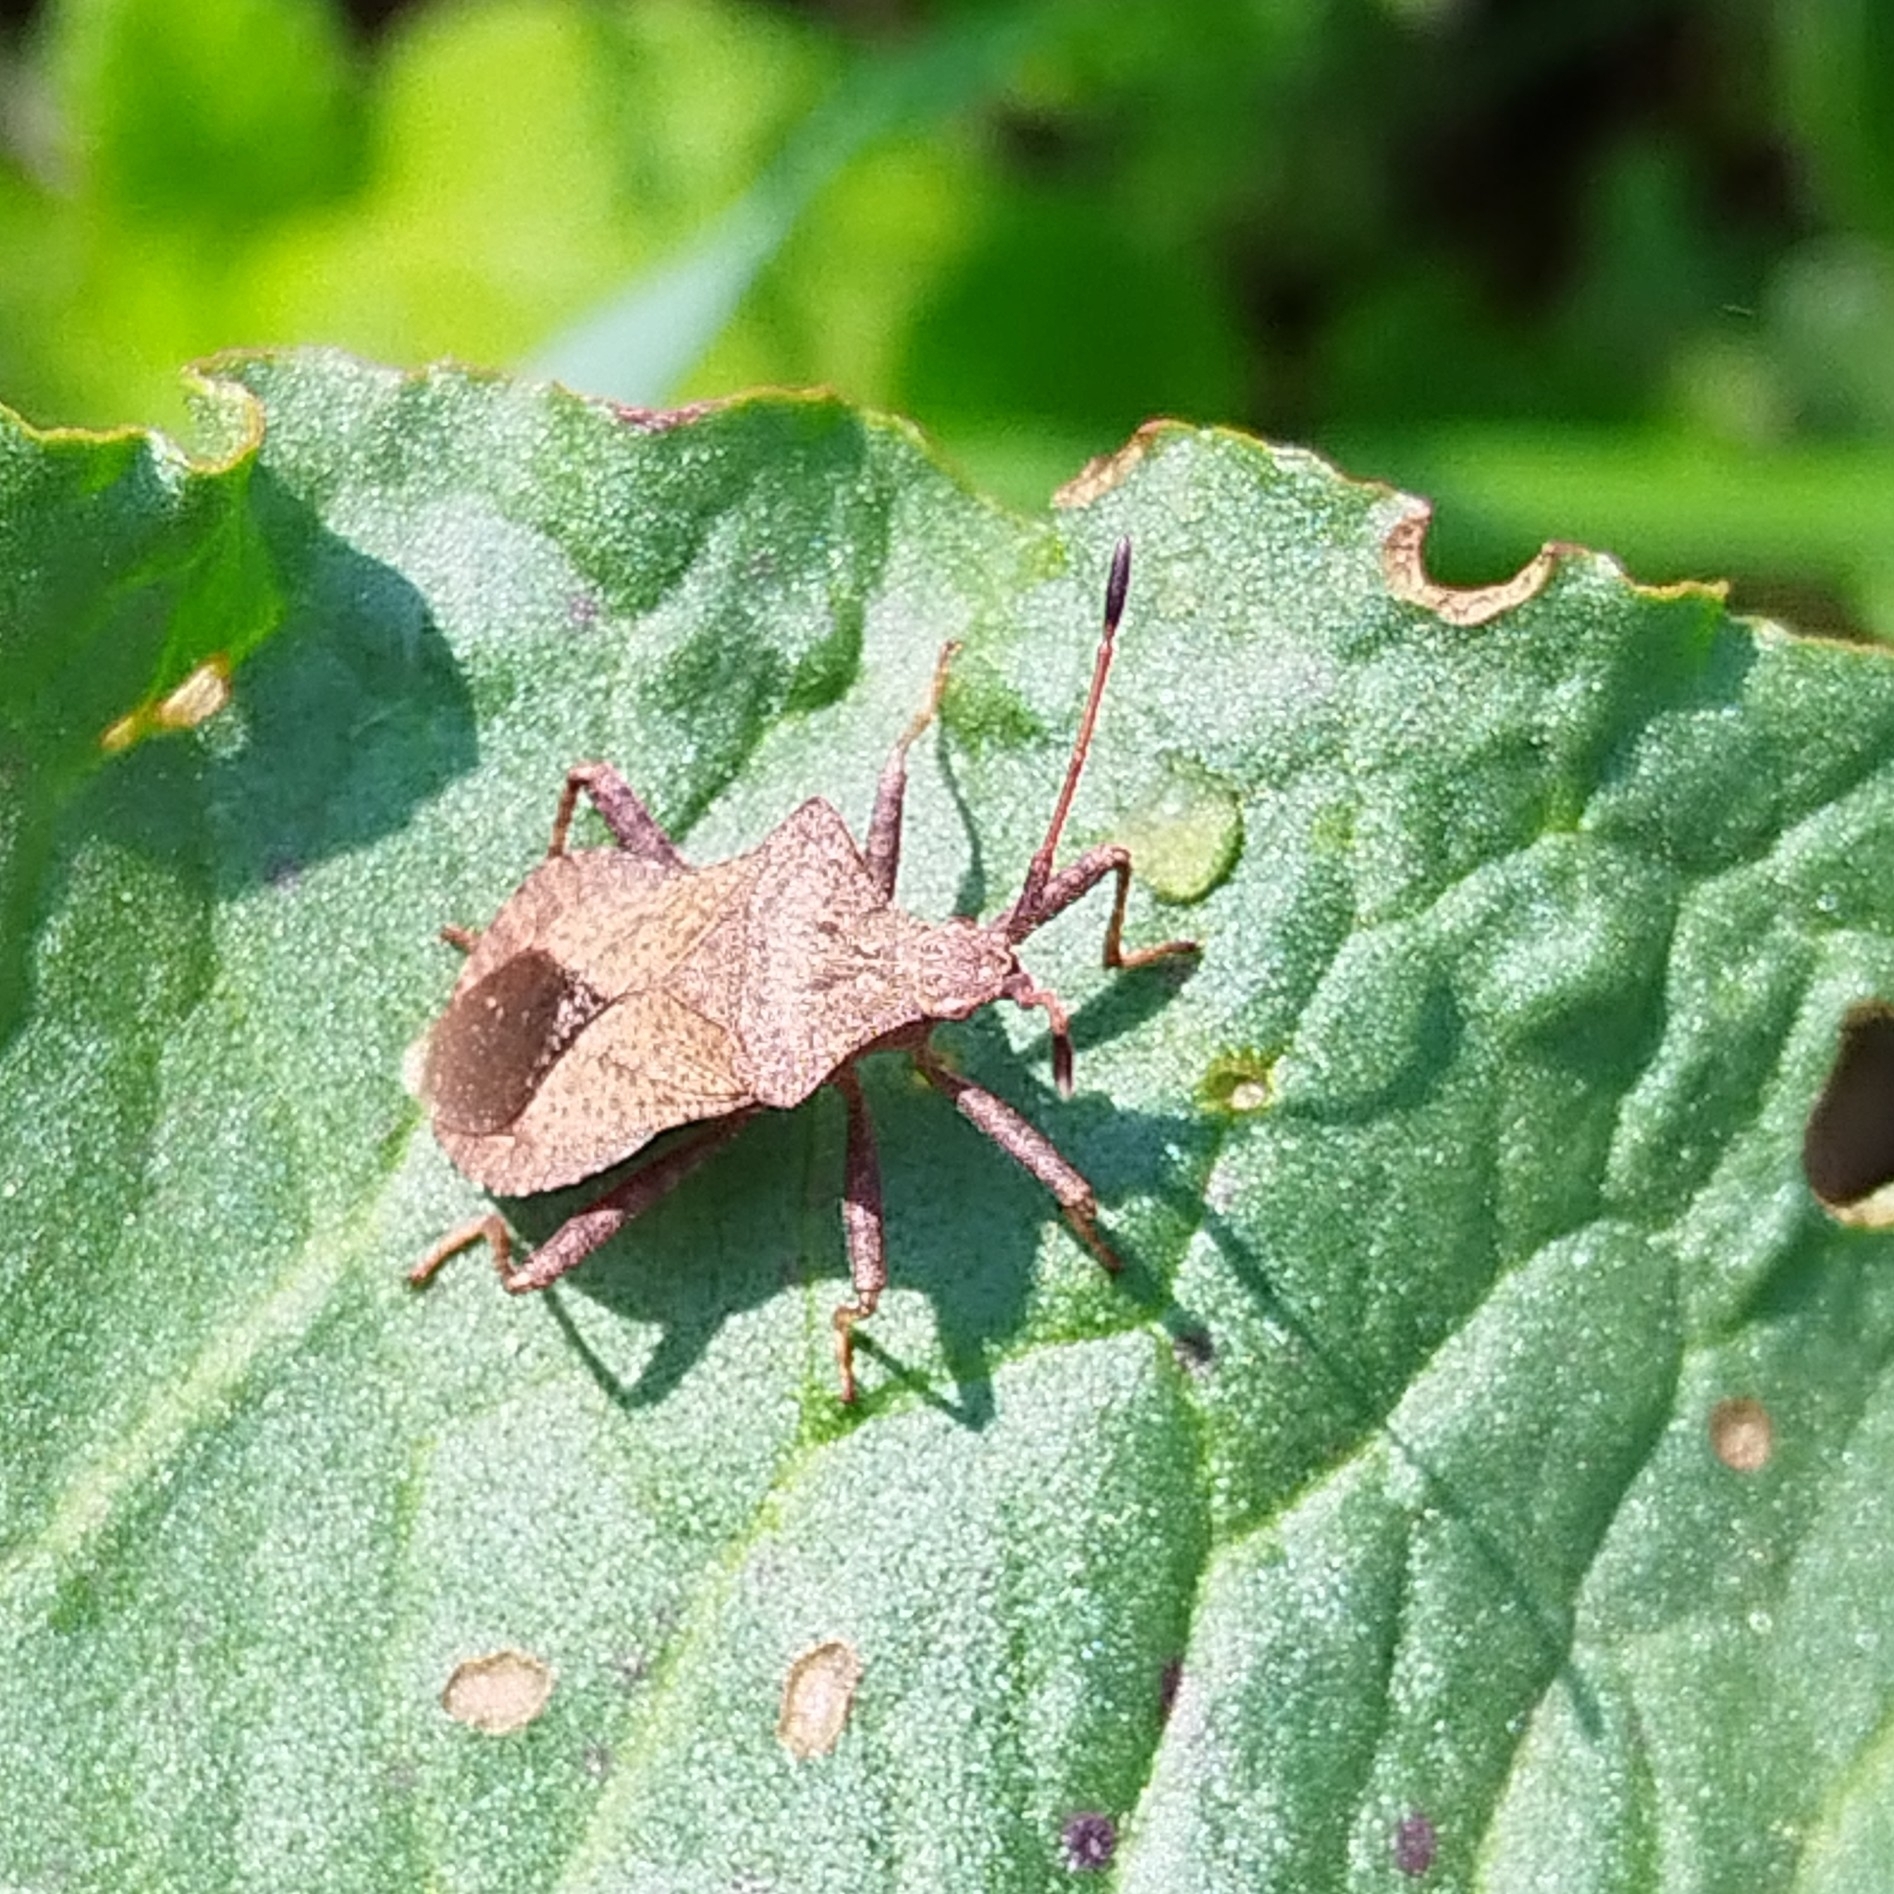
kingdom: Animalia
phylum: Arthropoda
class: Insecta
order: Hemiptera
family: Coreidae
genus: Coreus
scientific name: Coreus marginatus
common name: Dock bug
